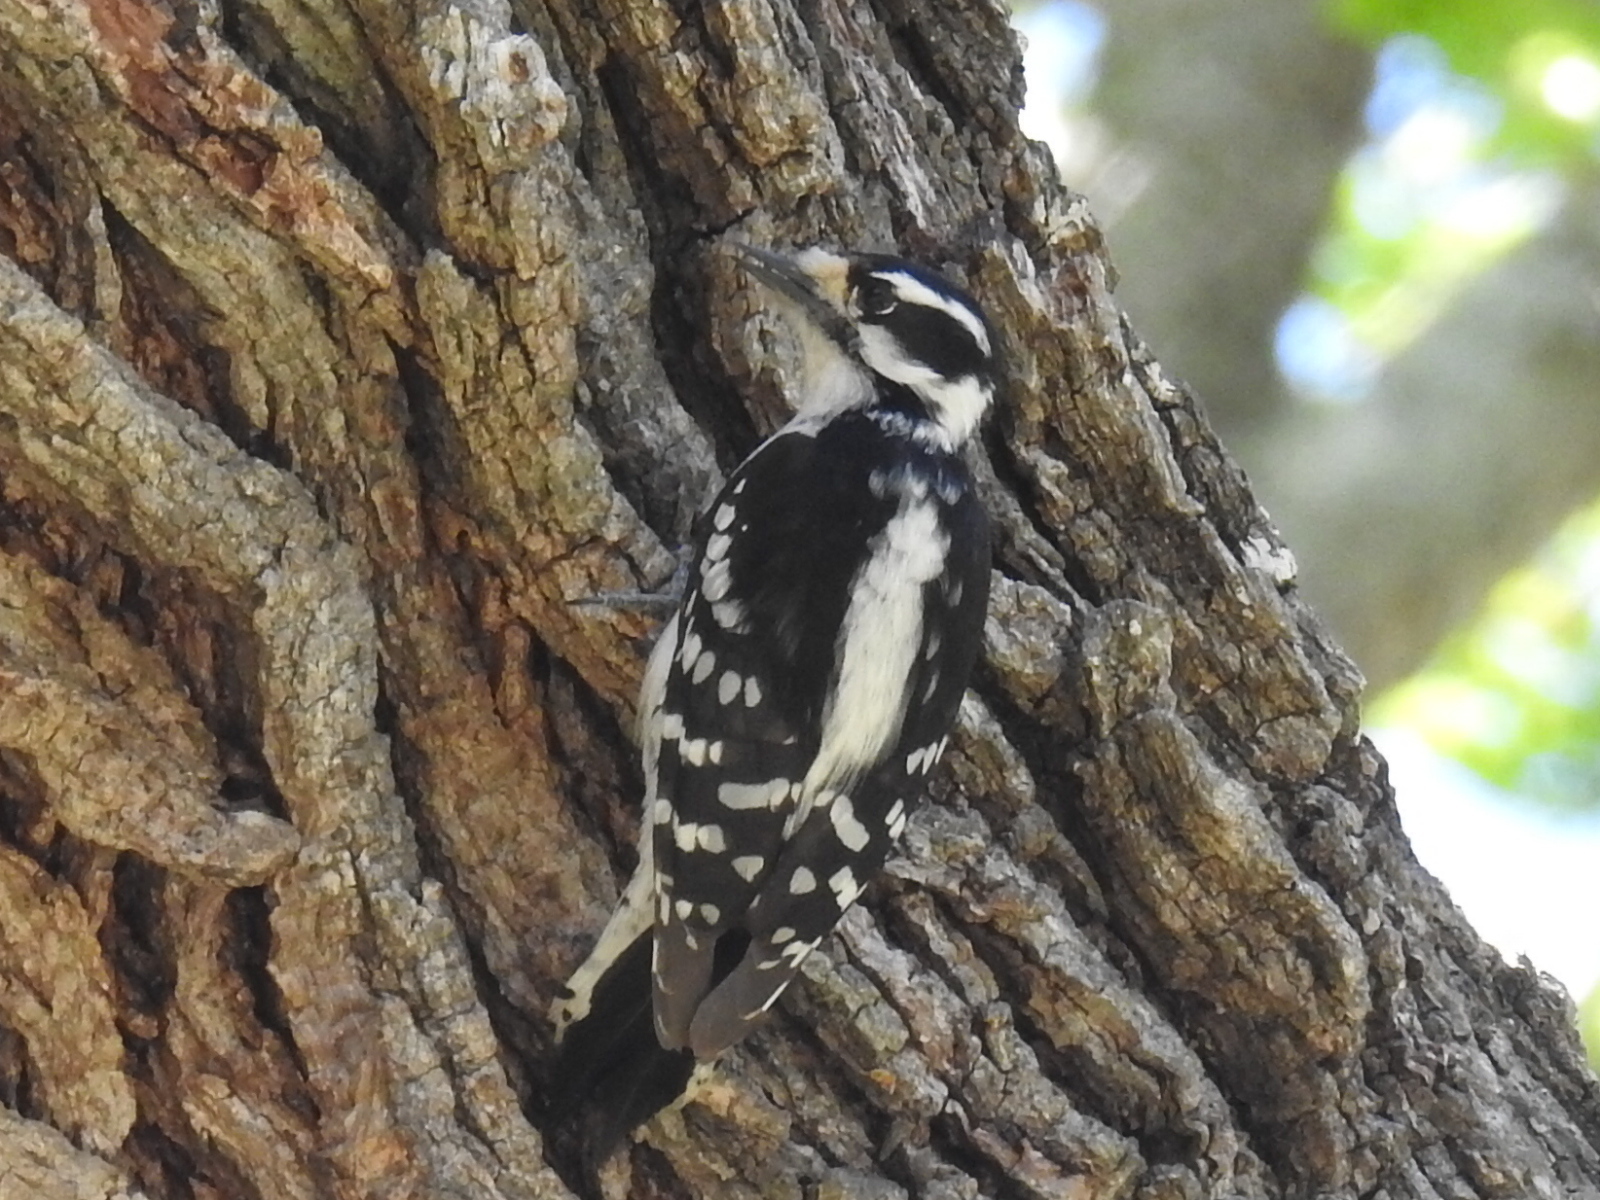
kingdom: Animalia
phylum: Chordata
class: Aves
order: Piciformes
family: Picidae
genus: Dryobates
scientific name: Dryobates pubescens
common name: Downy woodpecker
